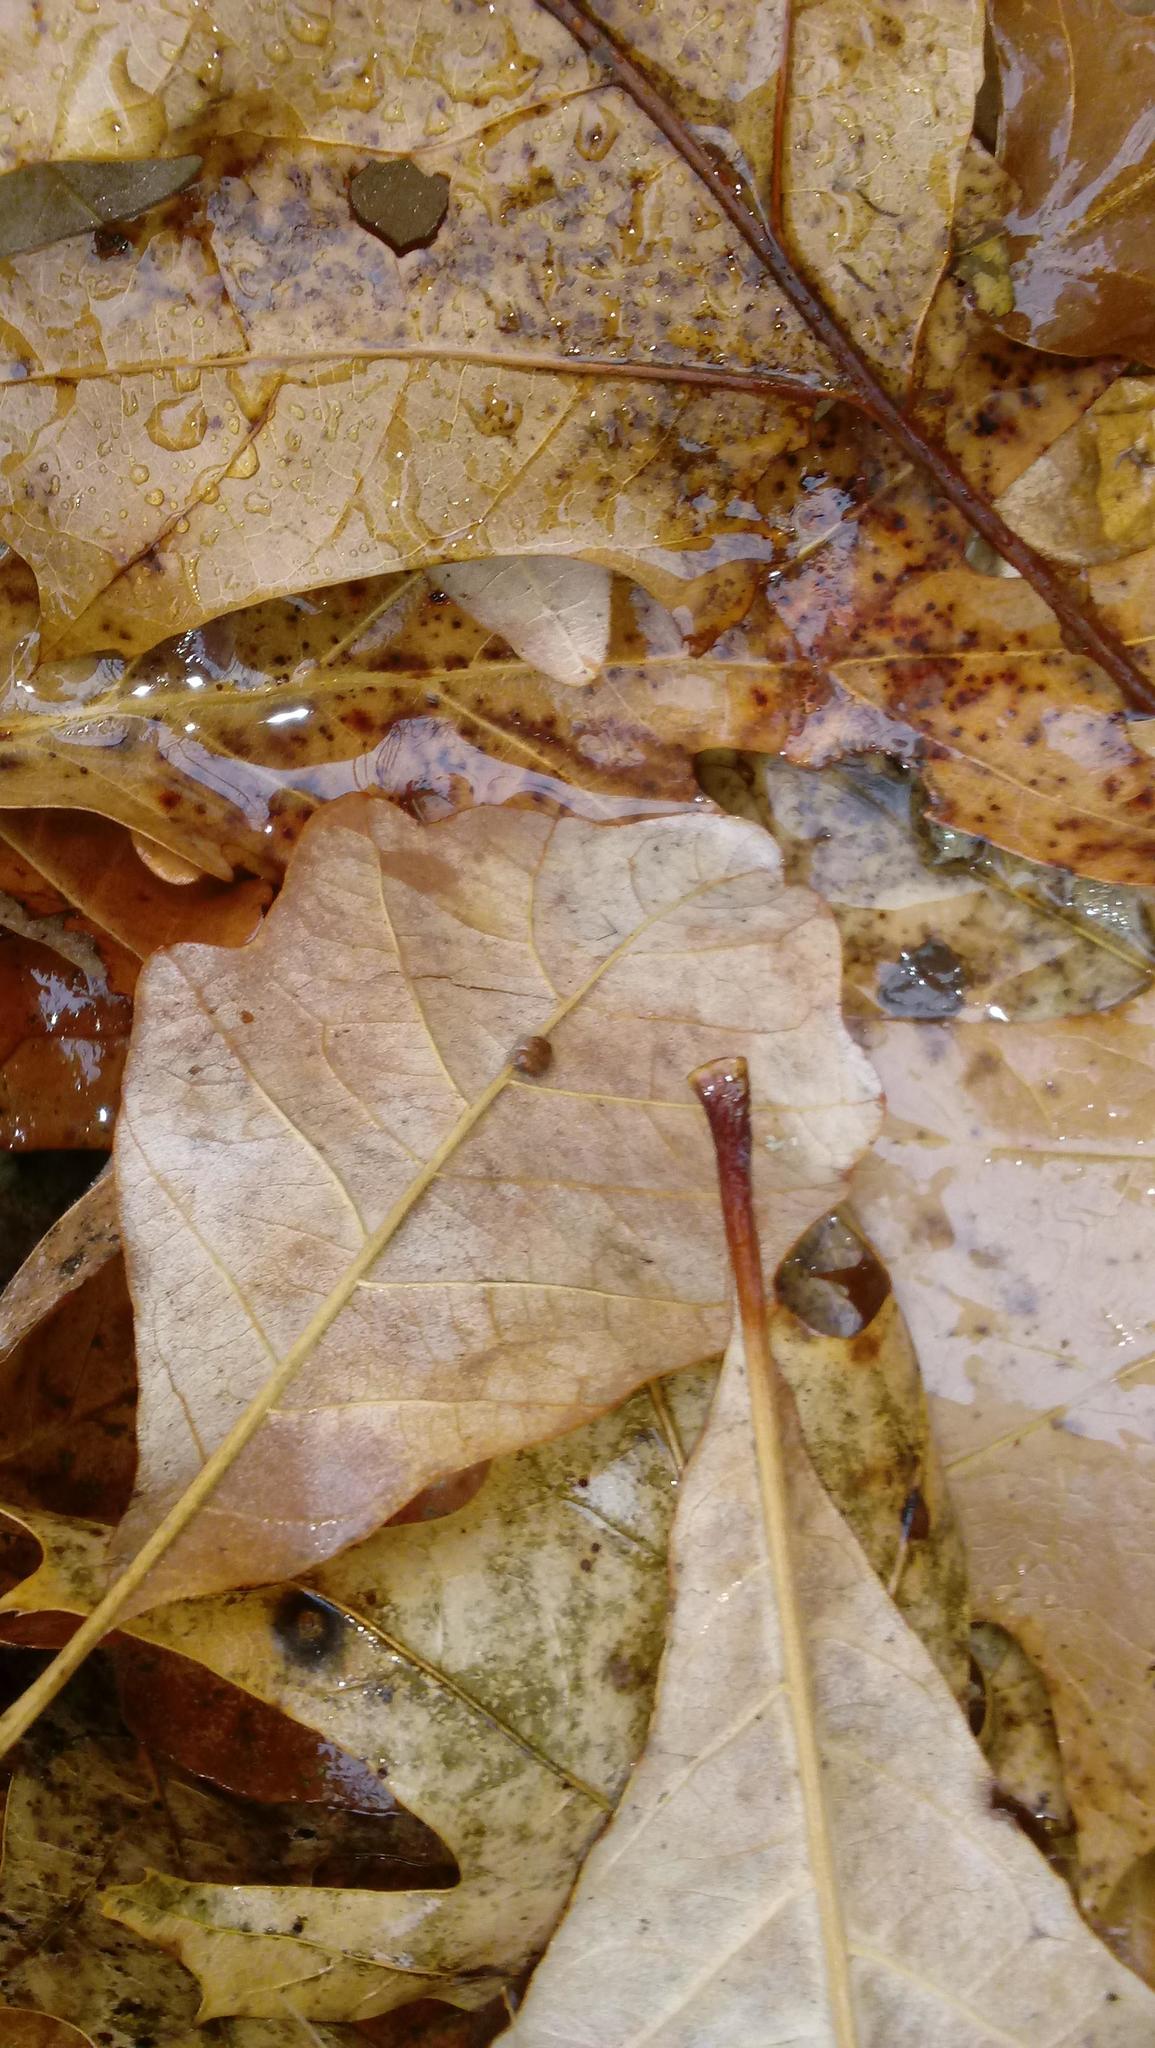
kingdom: Animalia
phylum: Arthropoda
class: Insecta
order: Hymenoptera
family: Cynipidae
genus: Andricus
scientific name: Andricus Druon ignotum
